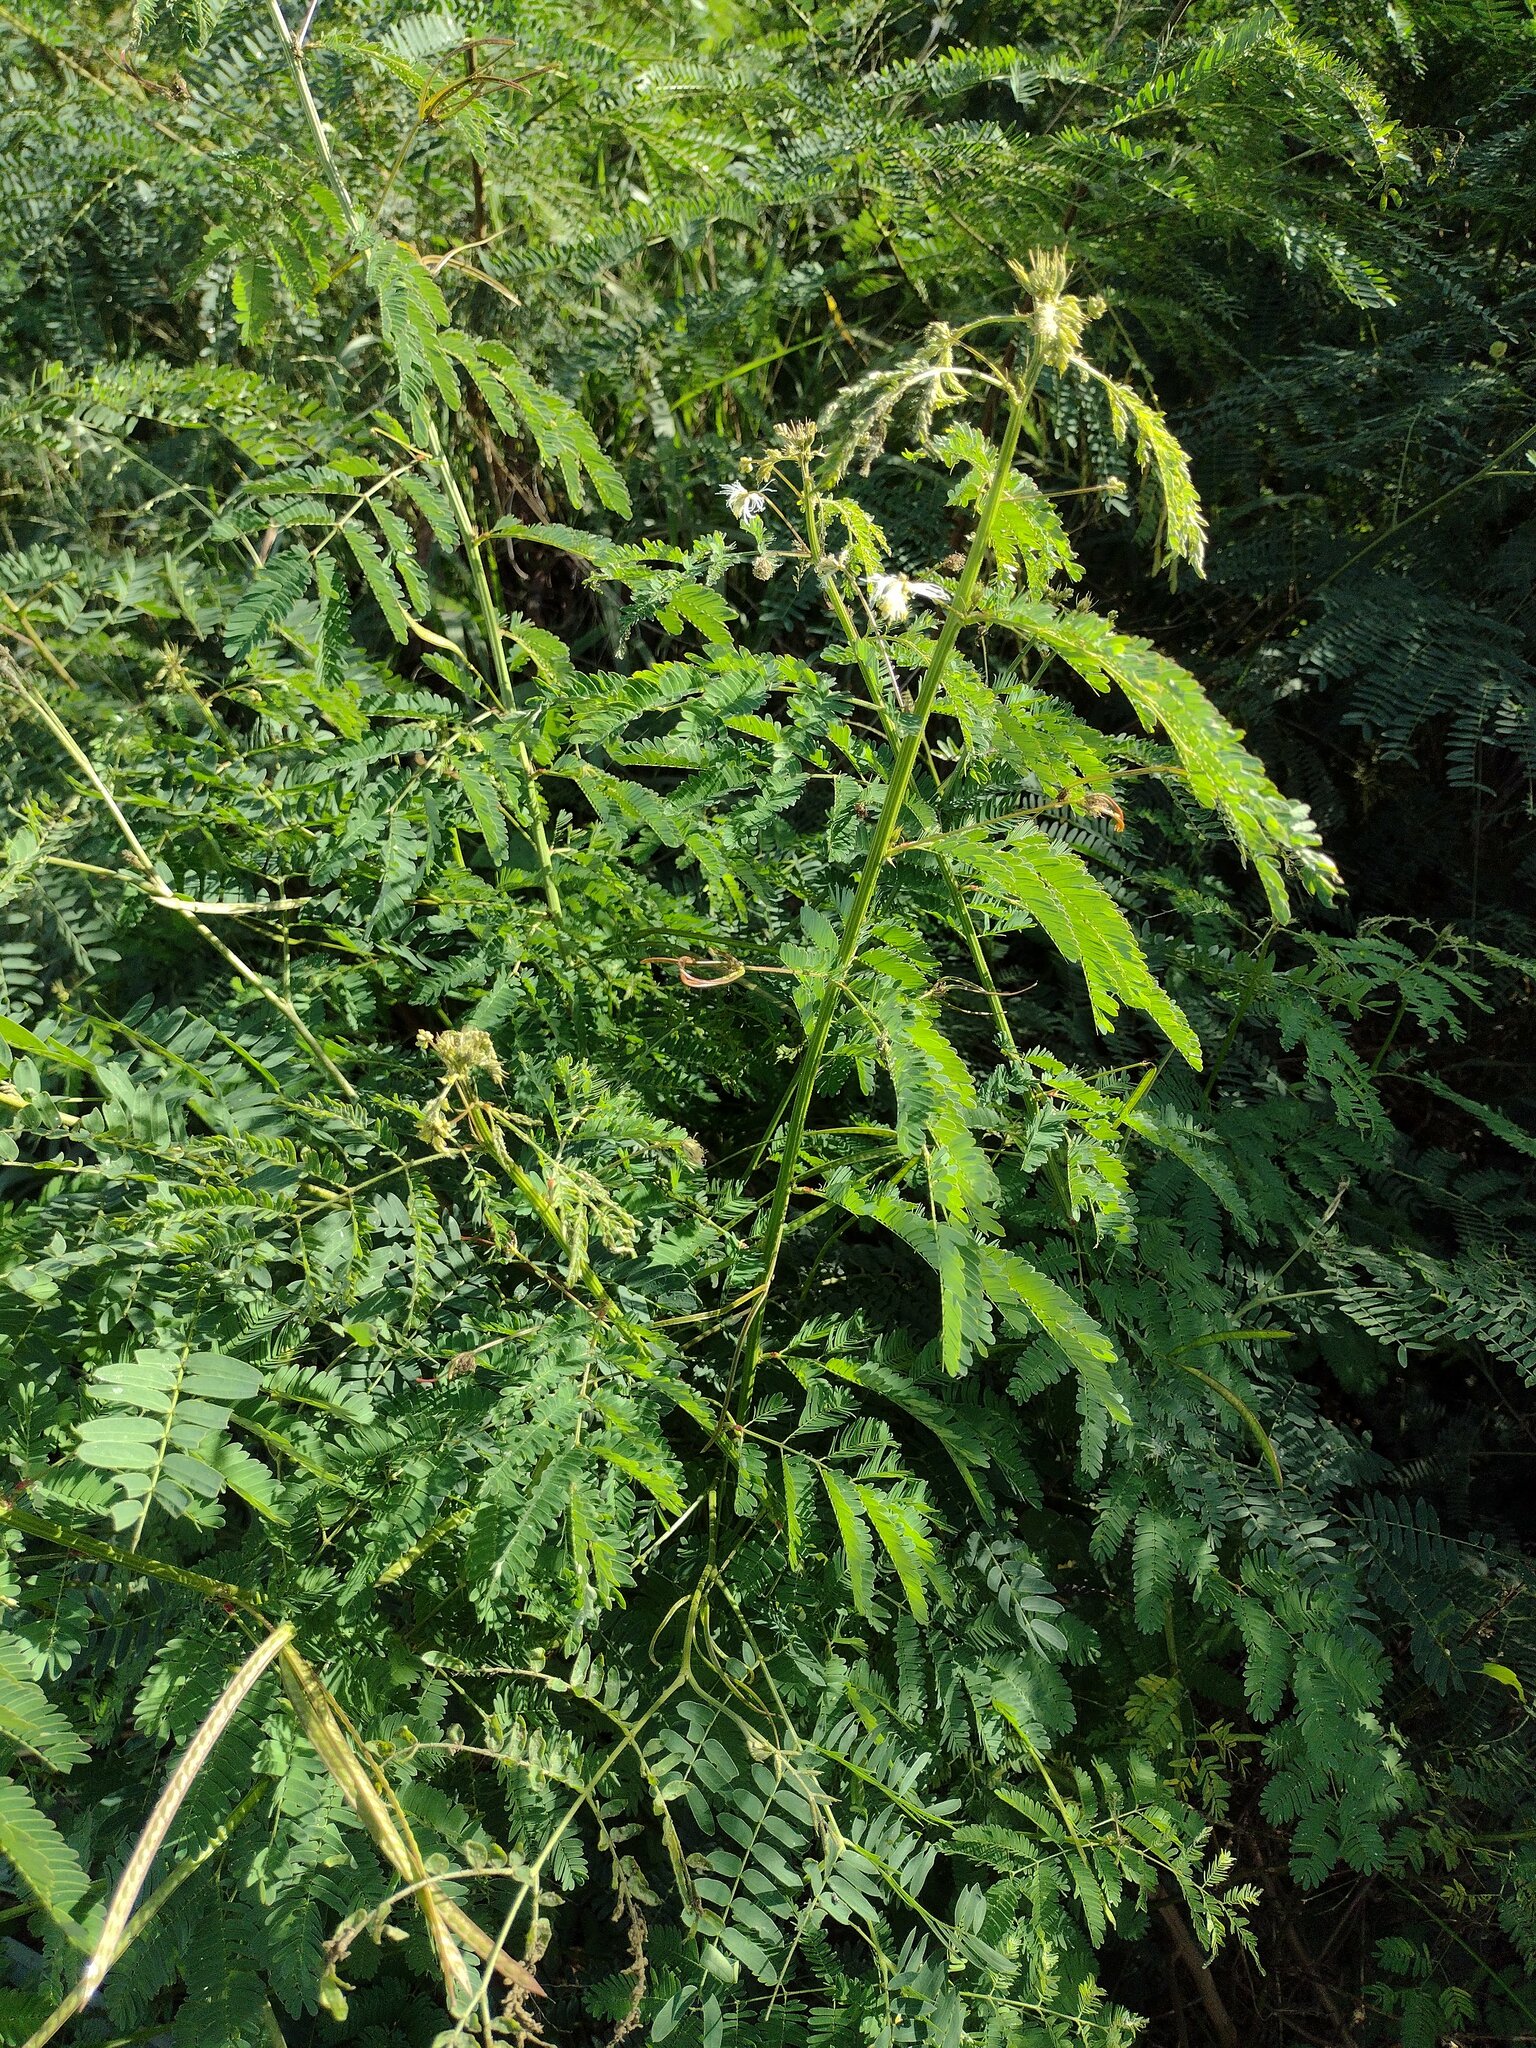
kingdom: Plantae
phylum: Tracheophyta
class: Magnoliopsida
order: Fabales
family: Fabaceae
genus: Leucaena
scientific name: Leucaena leucocephala
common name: White leadtree
